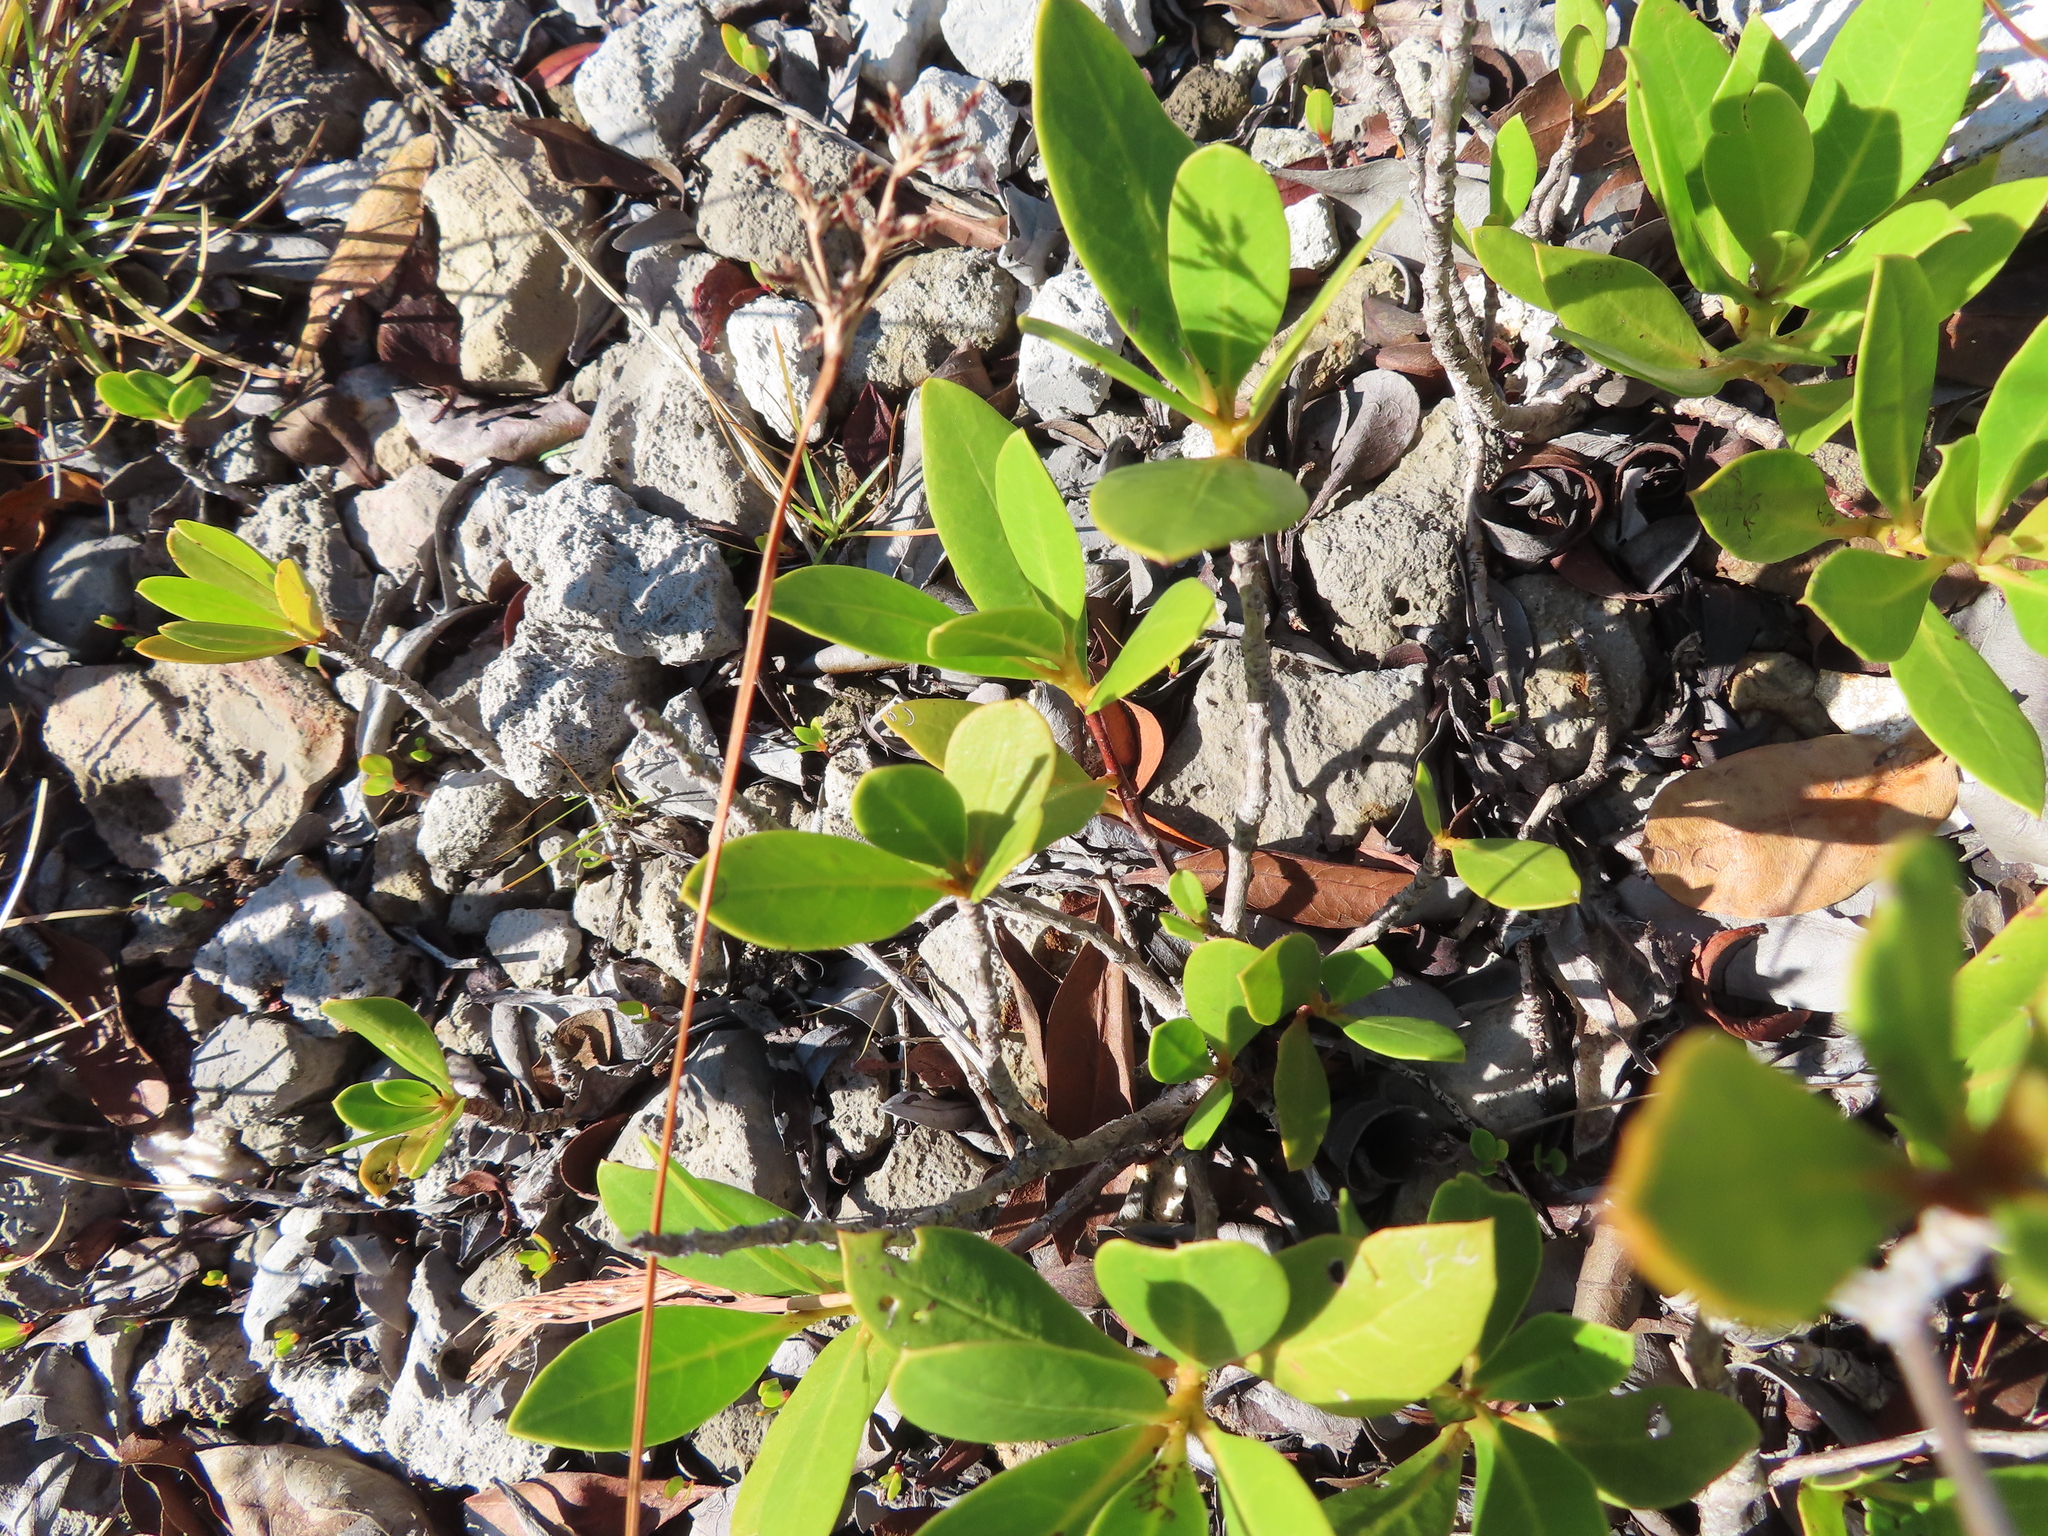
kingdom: Plantae
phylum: Tracheophyta
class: Magnoliopsida
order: Myrtales
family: Combretaceae
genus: Conocarpus
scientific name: Conocarpus erectus
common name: Button mangrove
